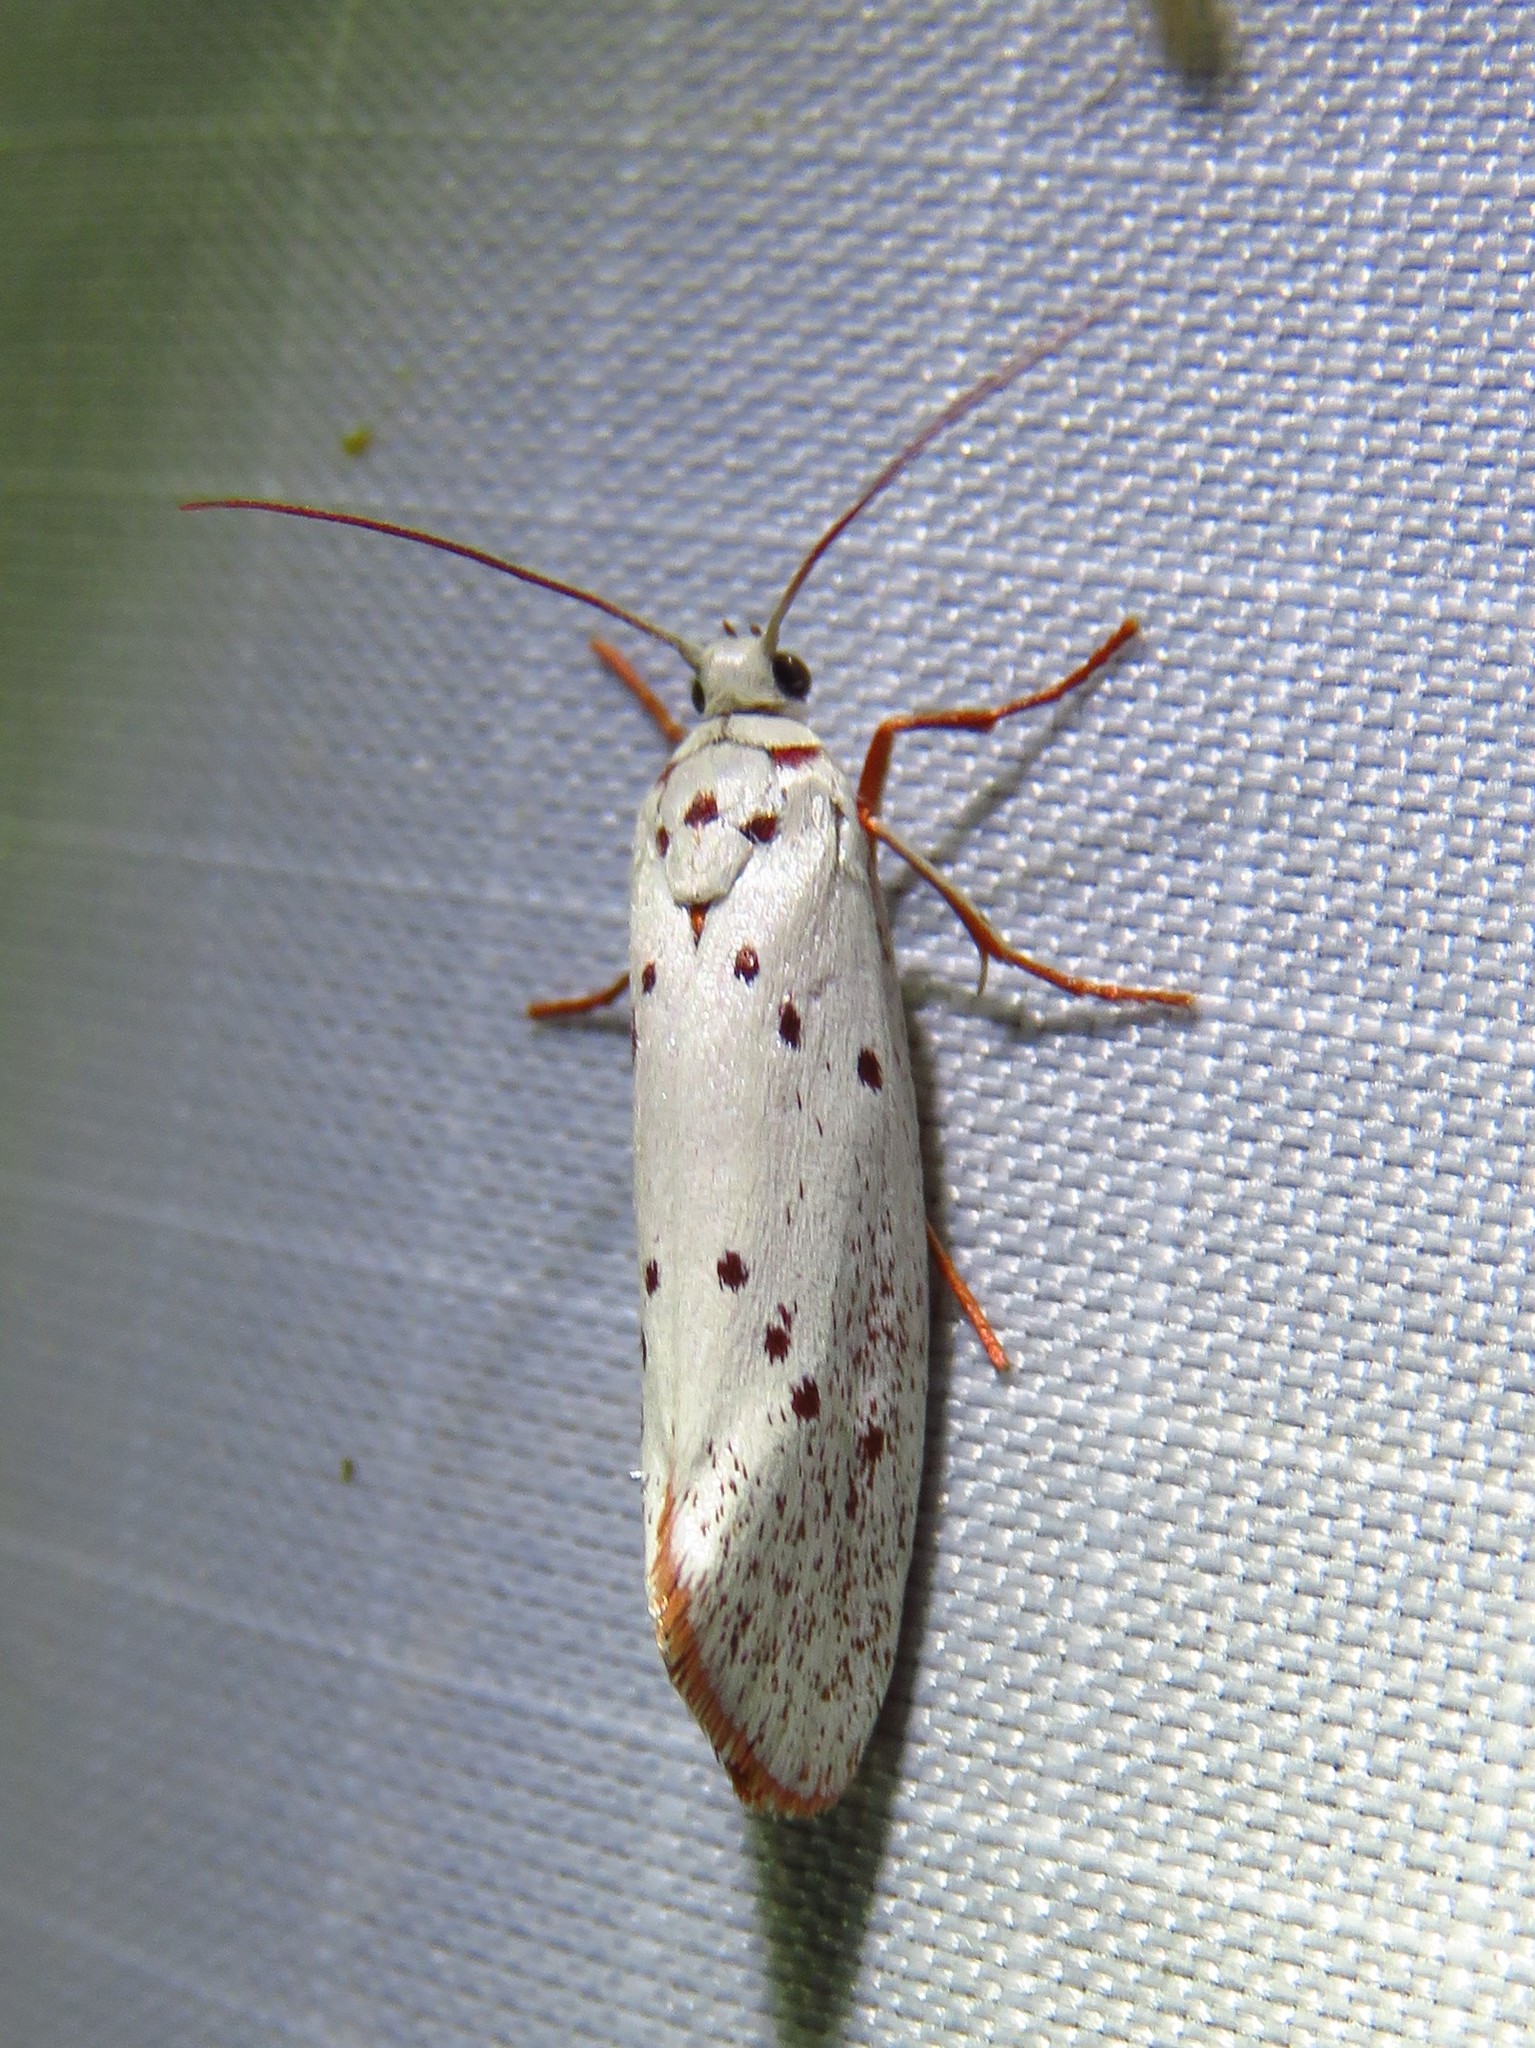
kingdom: Animalia
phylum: Arthropoda
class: Insecta
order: Lepidoptera
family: Lacturidae
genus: Lactura
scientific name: Lactura
